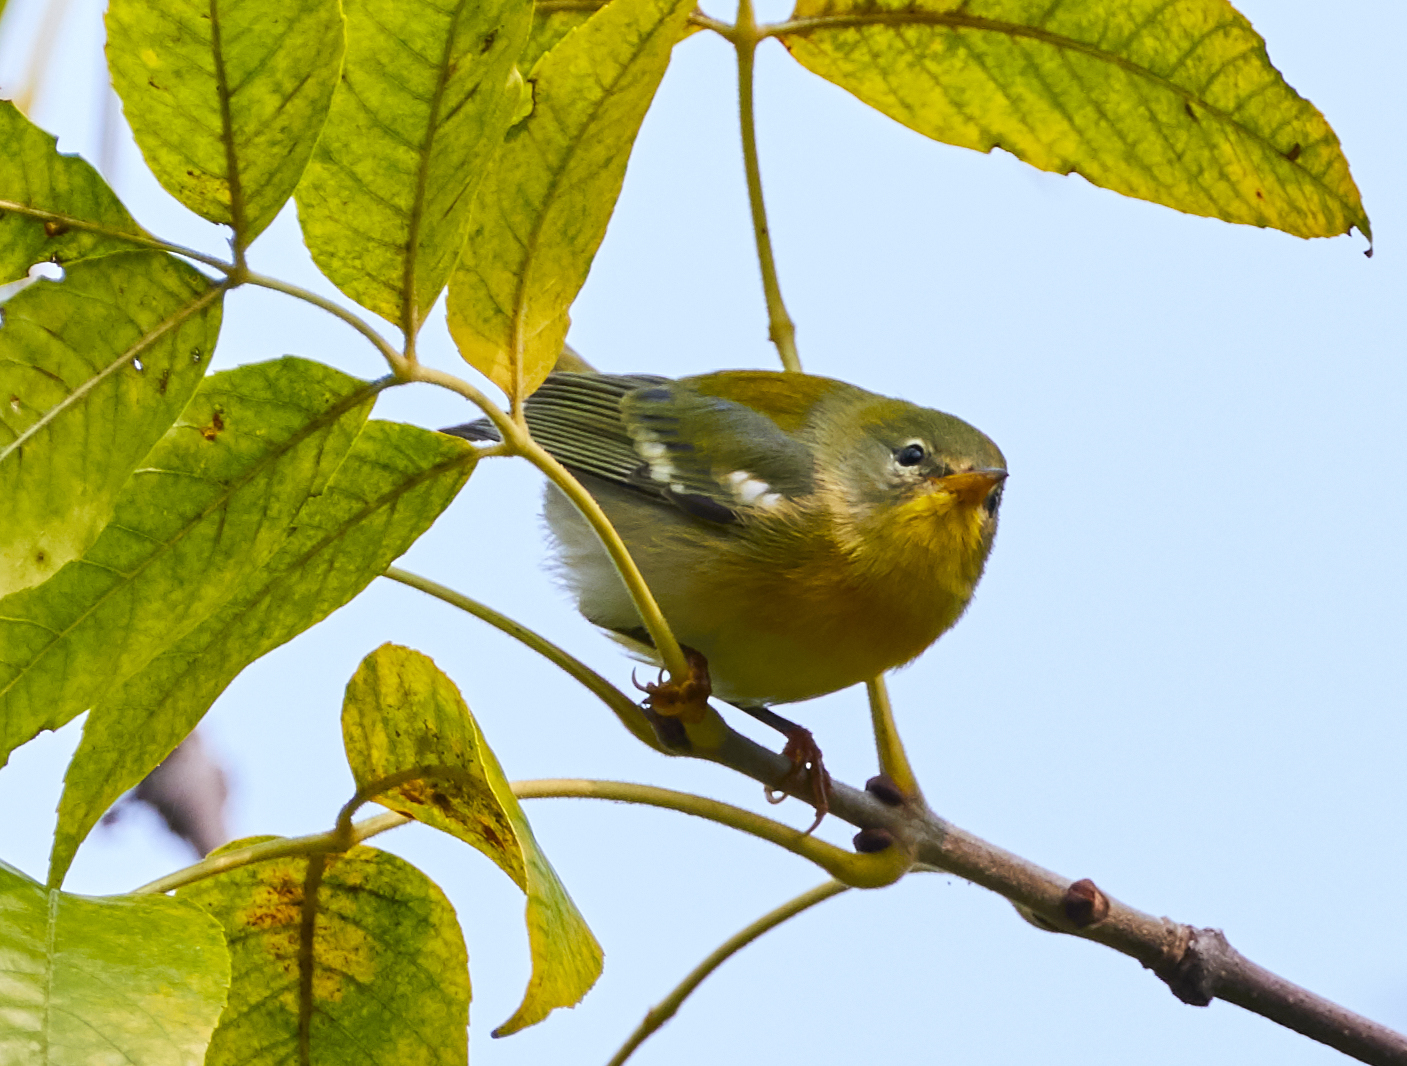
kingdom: Animalia
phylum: Chordata
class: Aves
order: Passeriformes
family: Parulidae
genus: Setophaga
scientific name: Setophaga americana
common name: Northern parula
